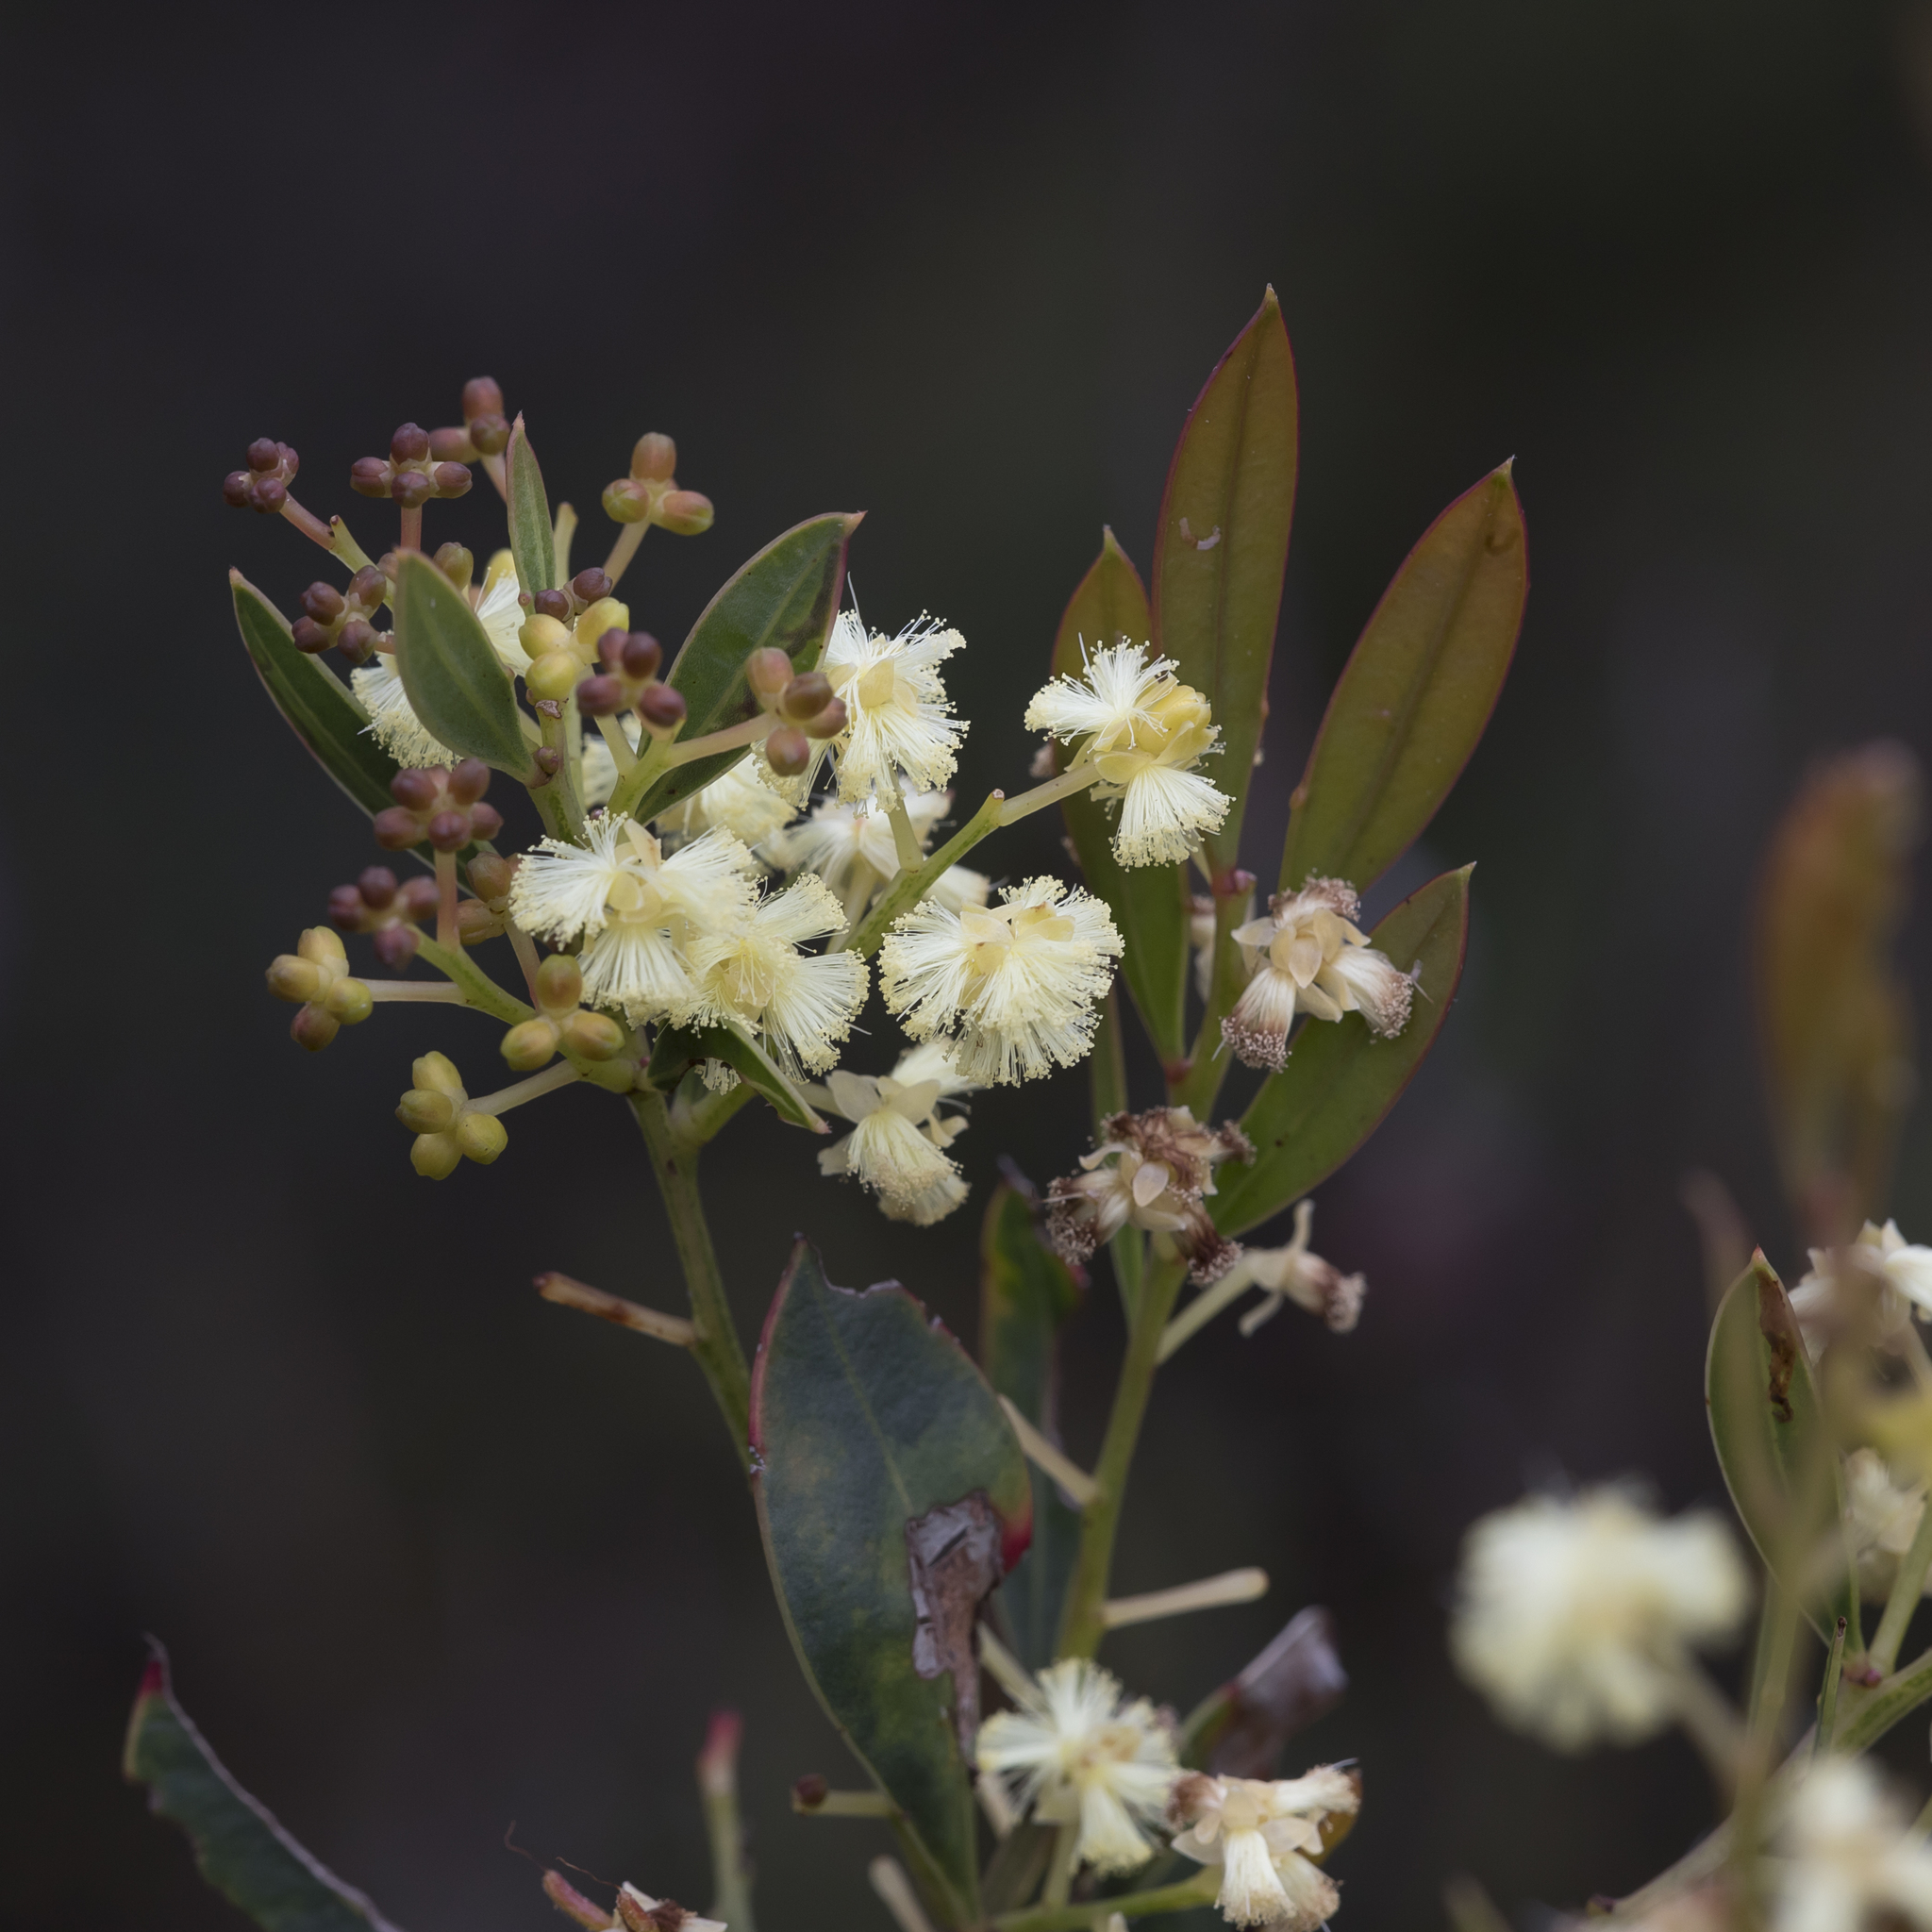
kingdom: Plantae
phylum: Tracheophyta
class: Magnoliopsida
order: Fabales
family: Fabaceae
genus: Acacia
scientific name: Acacia myrtifolia
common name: Myrtle wattle
